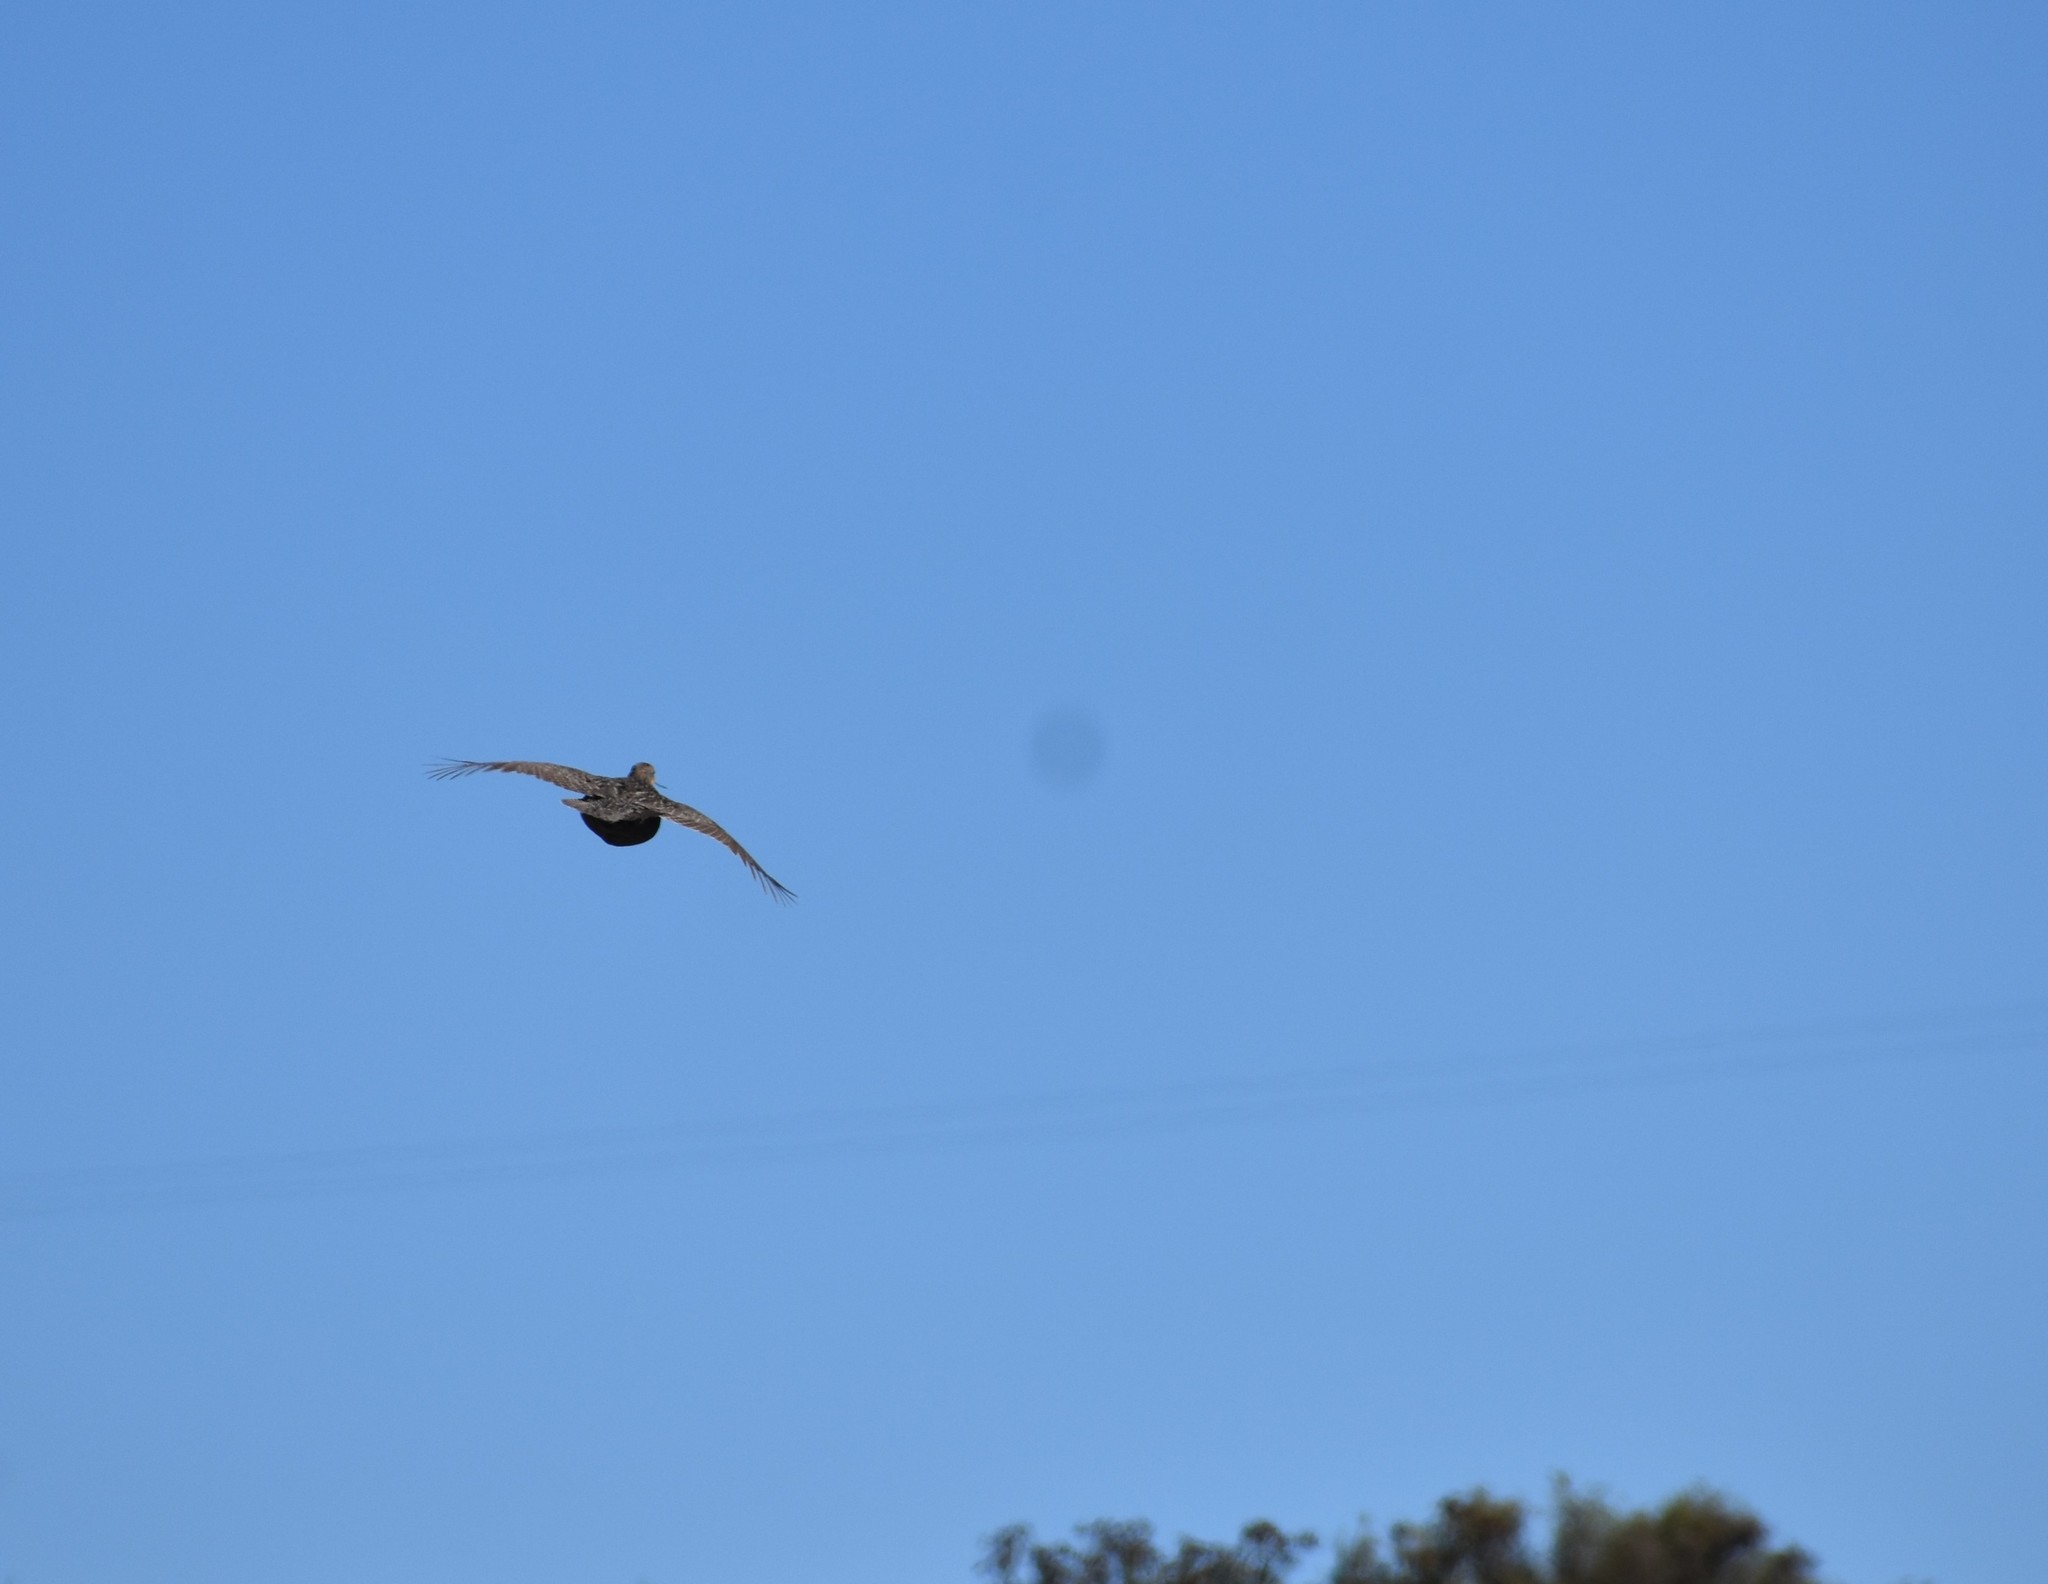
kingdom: Animalia
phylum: Chordata
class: Aves
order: Galliformes
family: Phasianidae
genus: Scleroptila
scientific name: Scleroptila afra
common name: Grey-winged francolin
